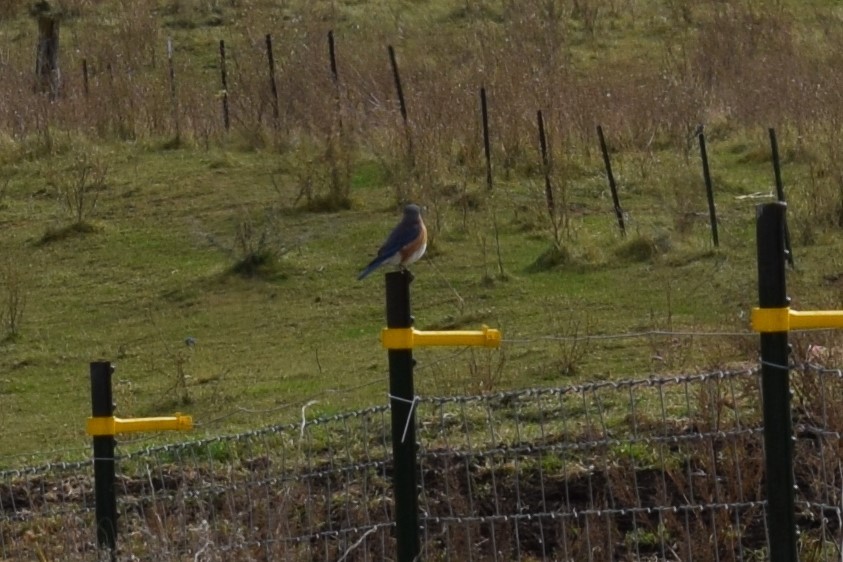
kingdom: Animalia
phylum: Chordata
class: Aves
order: Passeriformes
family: Turdidae
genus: Sialia
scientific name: Sialia sialis
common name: Eastern bluebird
